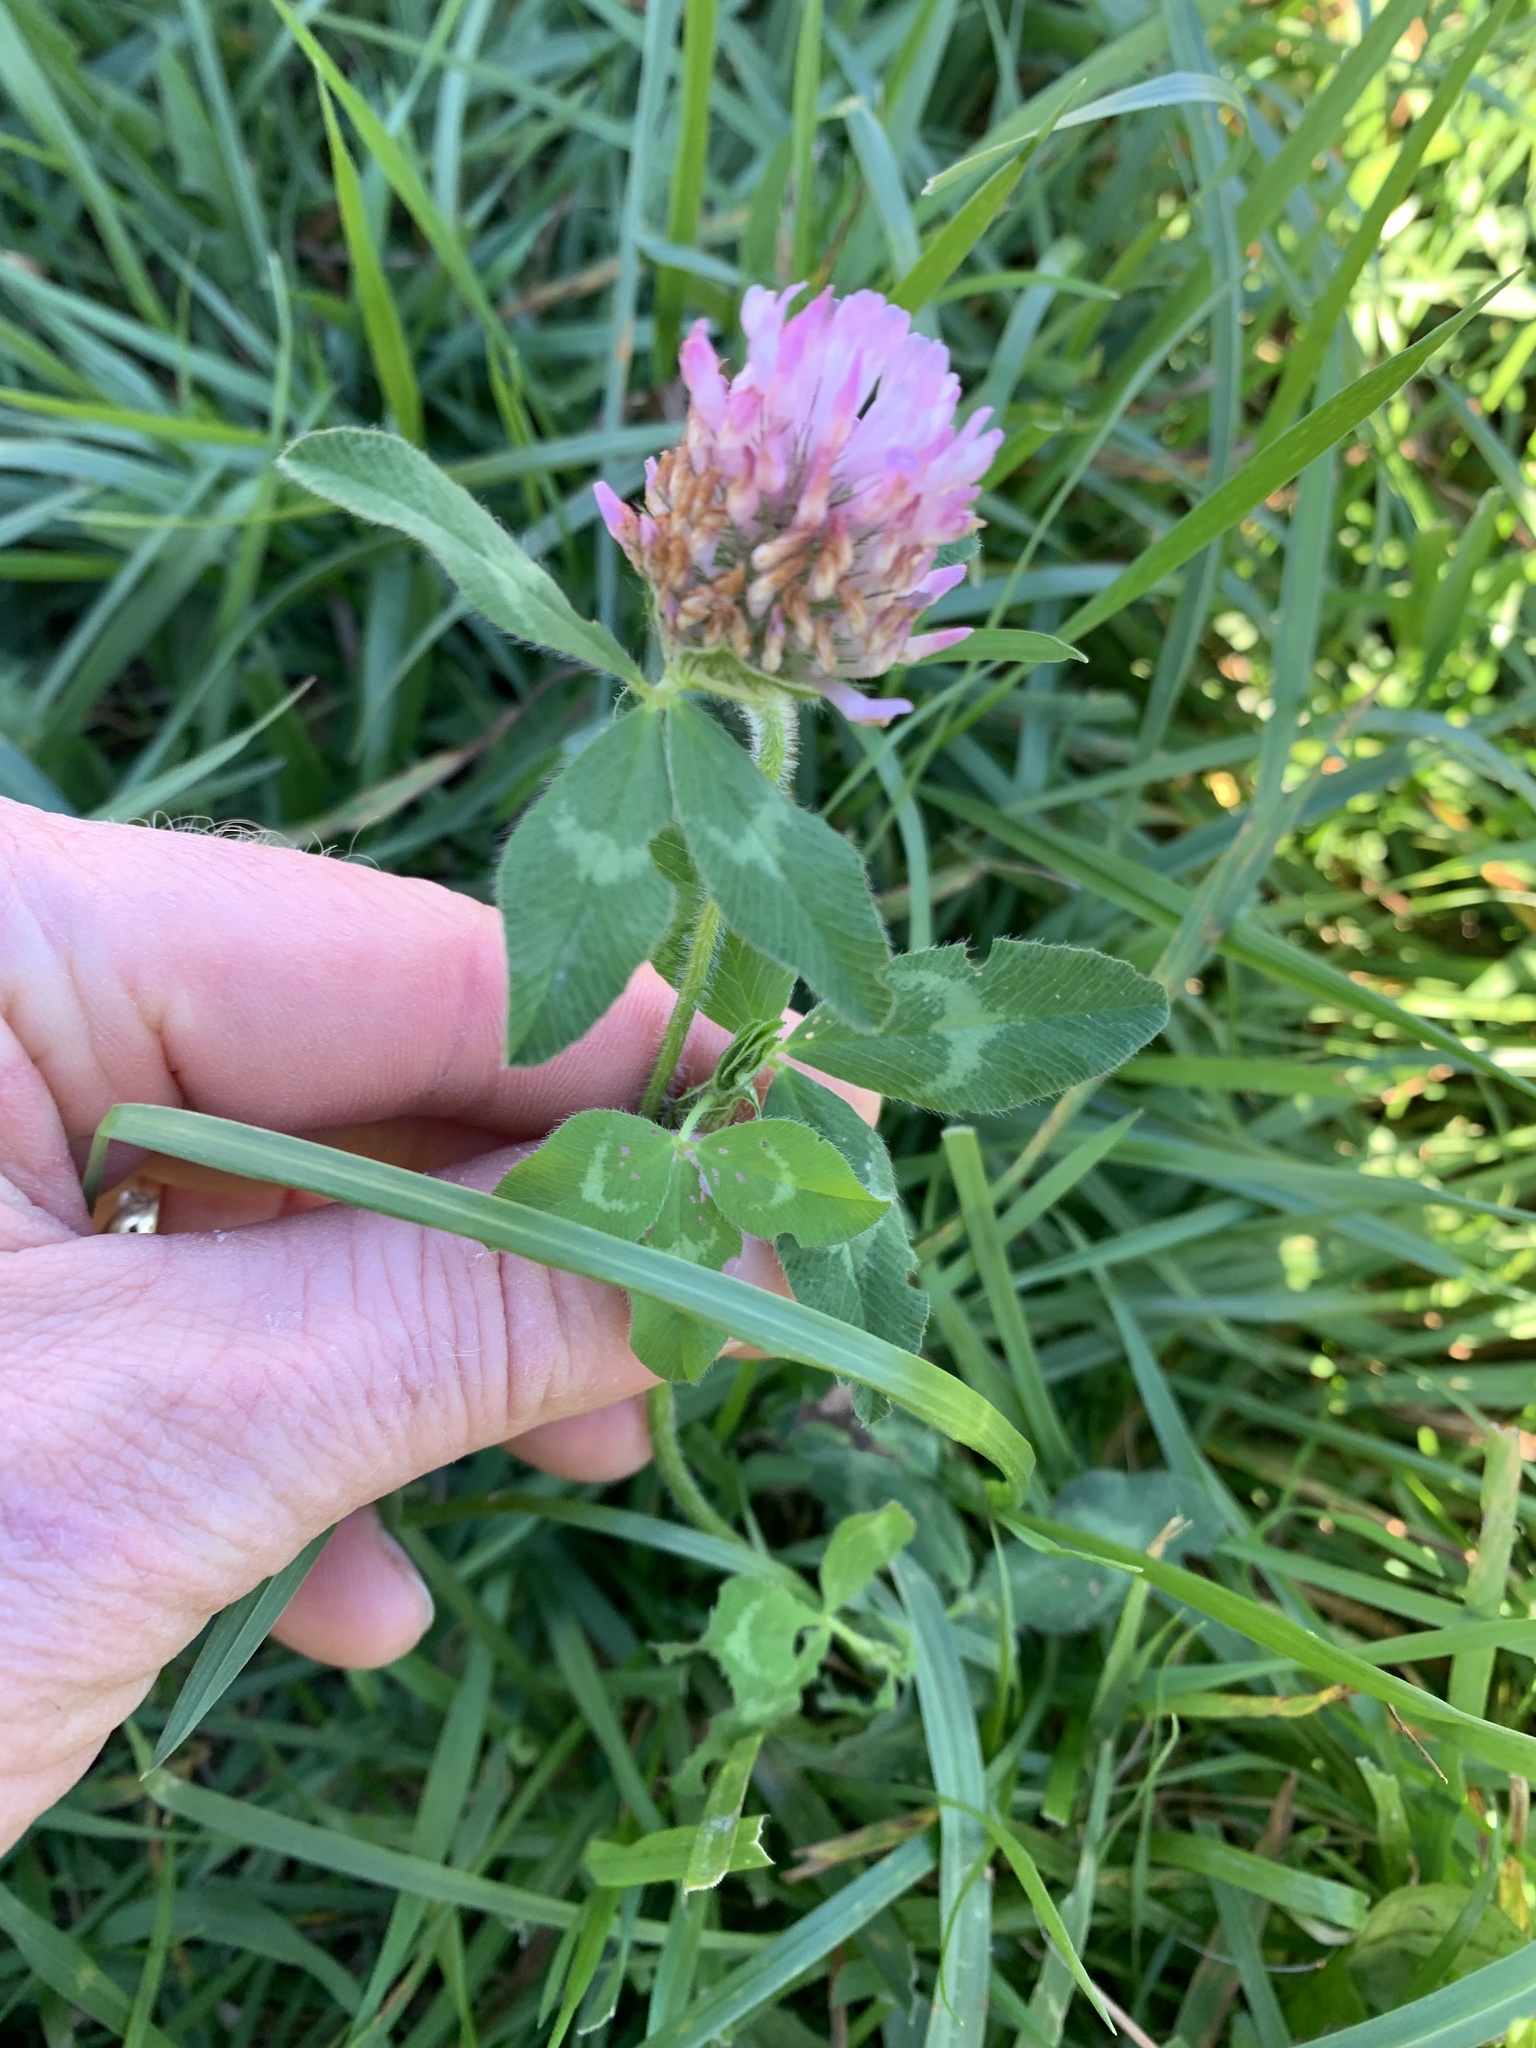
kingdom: Plantae
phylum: Tracheophyta
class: Magnoliopsida
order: Fabales
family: Fabaceae
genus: Trifolium
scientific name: Trifolium pratense
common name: Red clover
